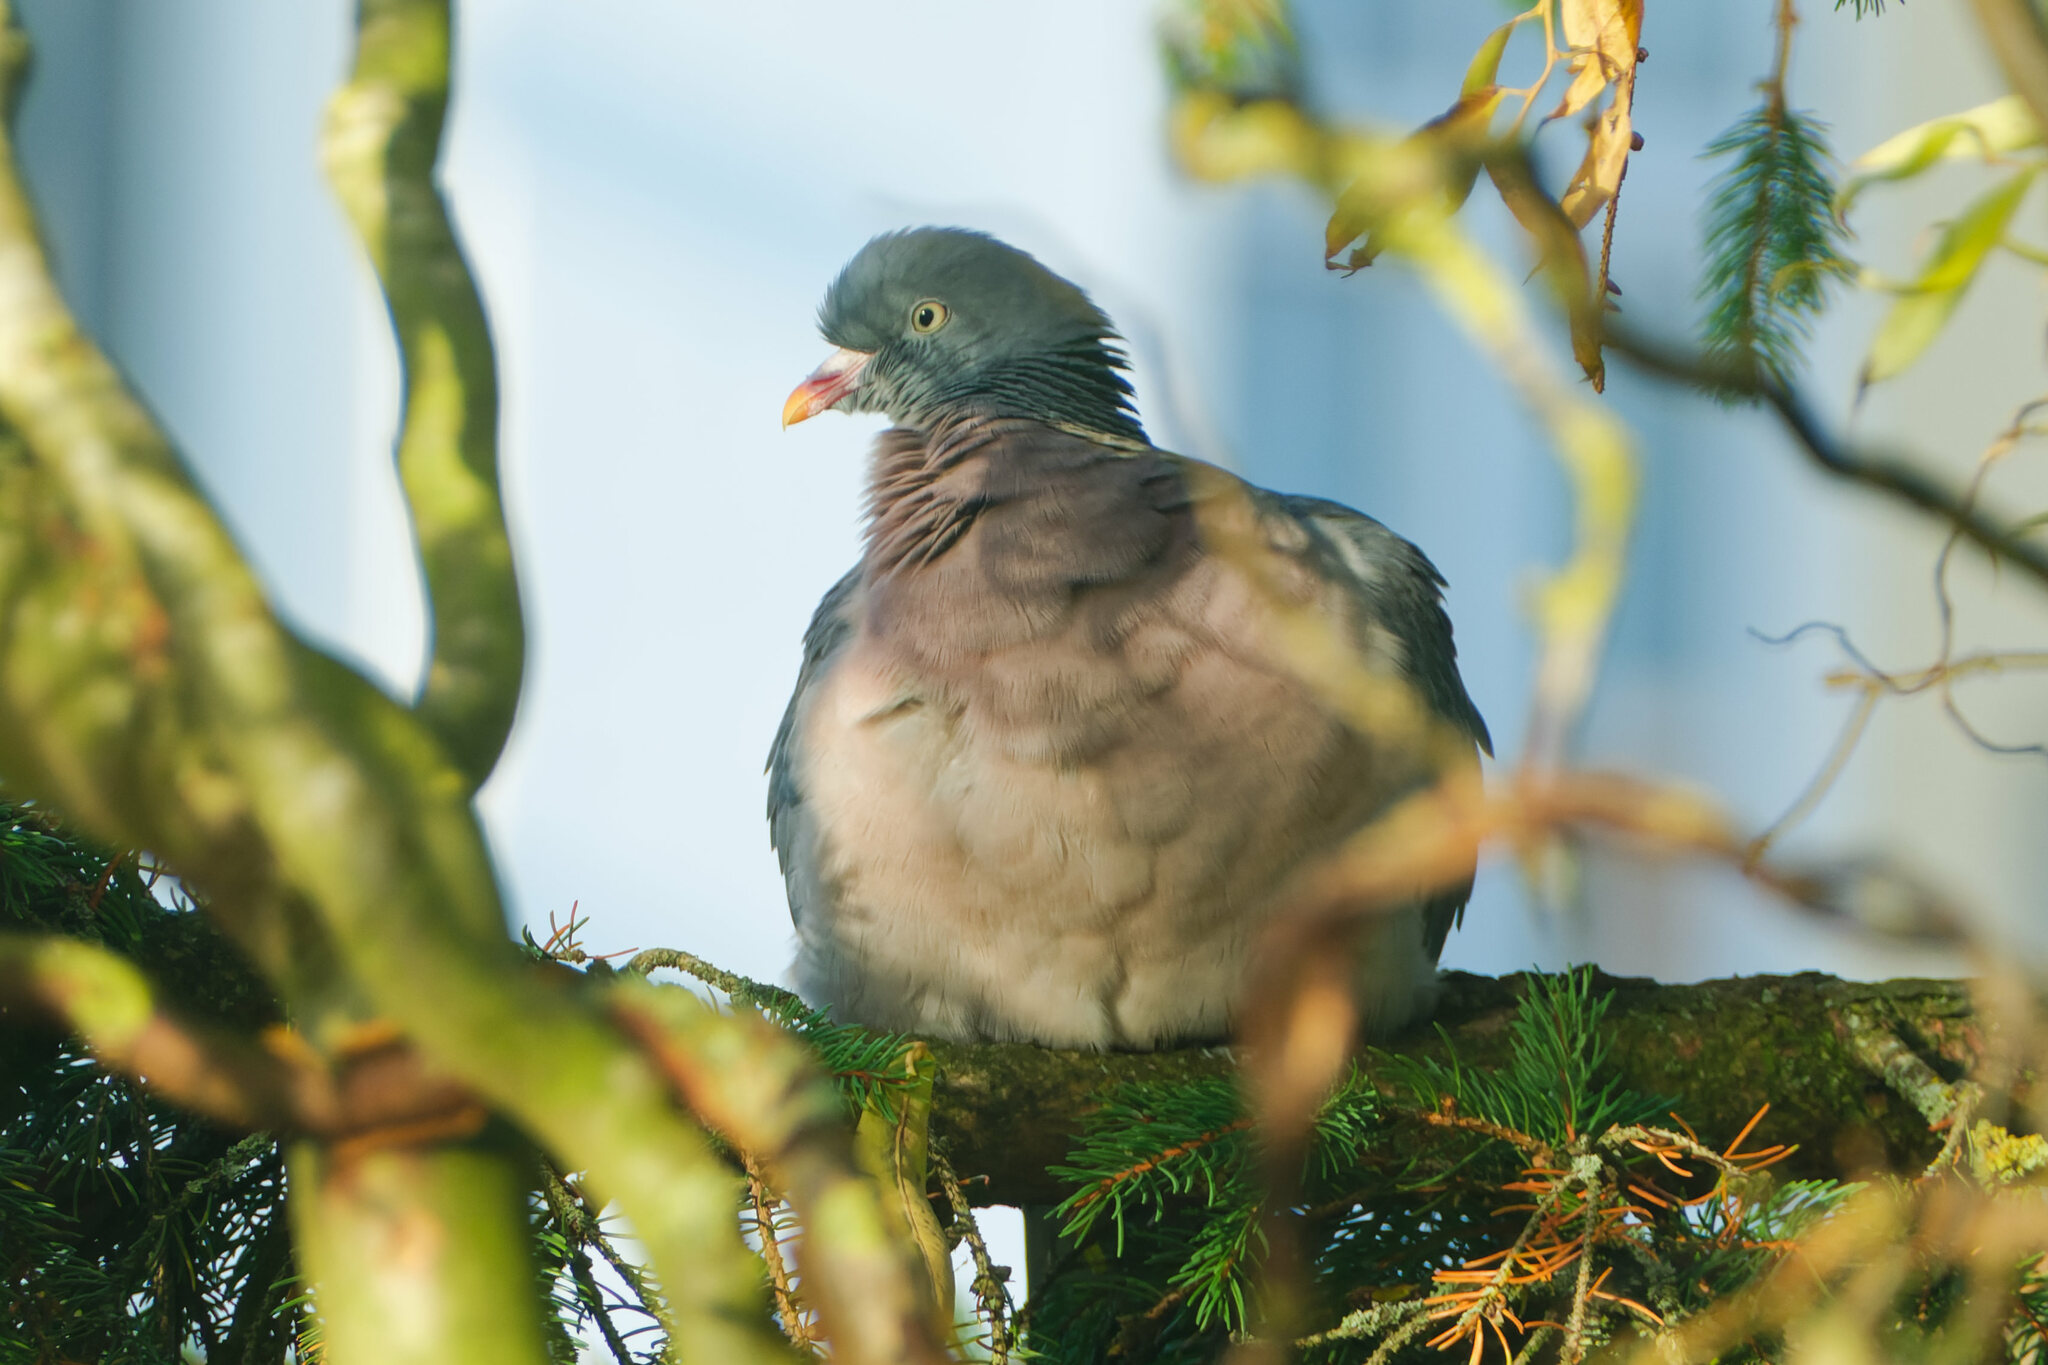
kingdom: Animalia
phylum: Chordata
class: Aves
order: Columbiformes
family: Columbidae
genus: Columba
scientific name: Columba palumbus
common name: Common wood pigeon
